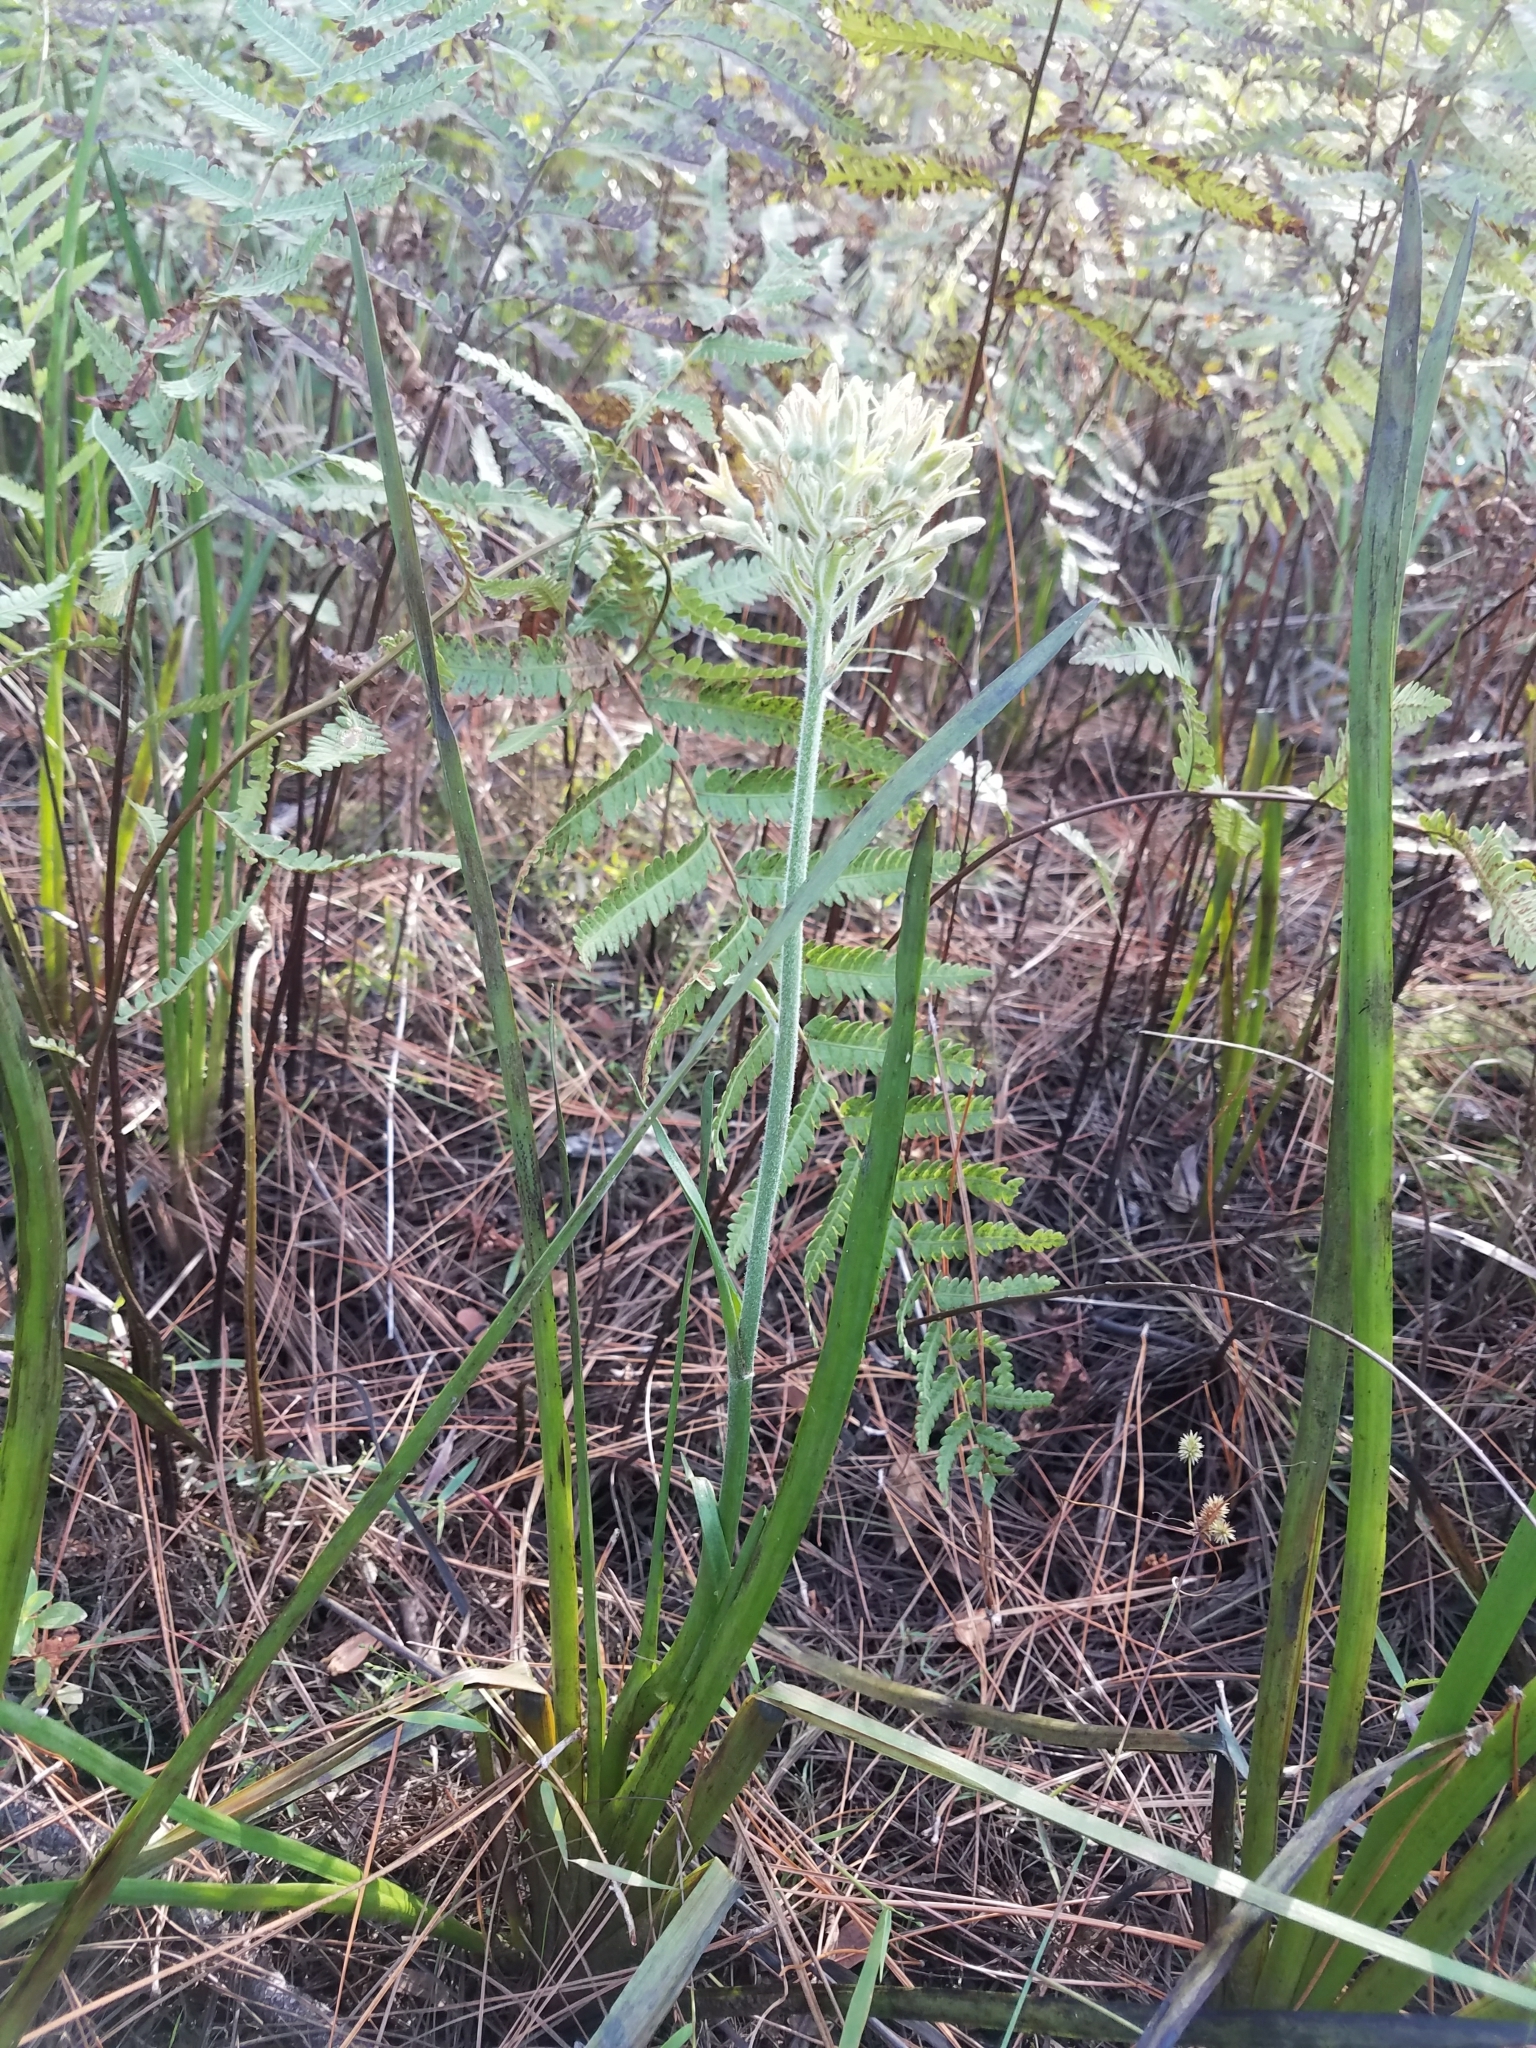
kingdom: Plantae
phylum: Tracheophyta
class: Liliopsida
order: Commelinales
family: Haemodoraceae
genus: Lachnanthes
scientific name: Lachnanthes caroliana
